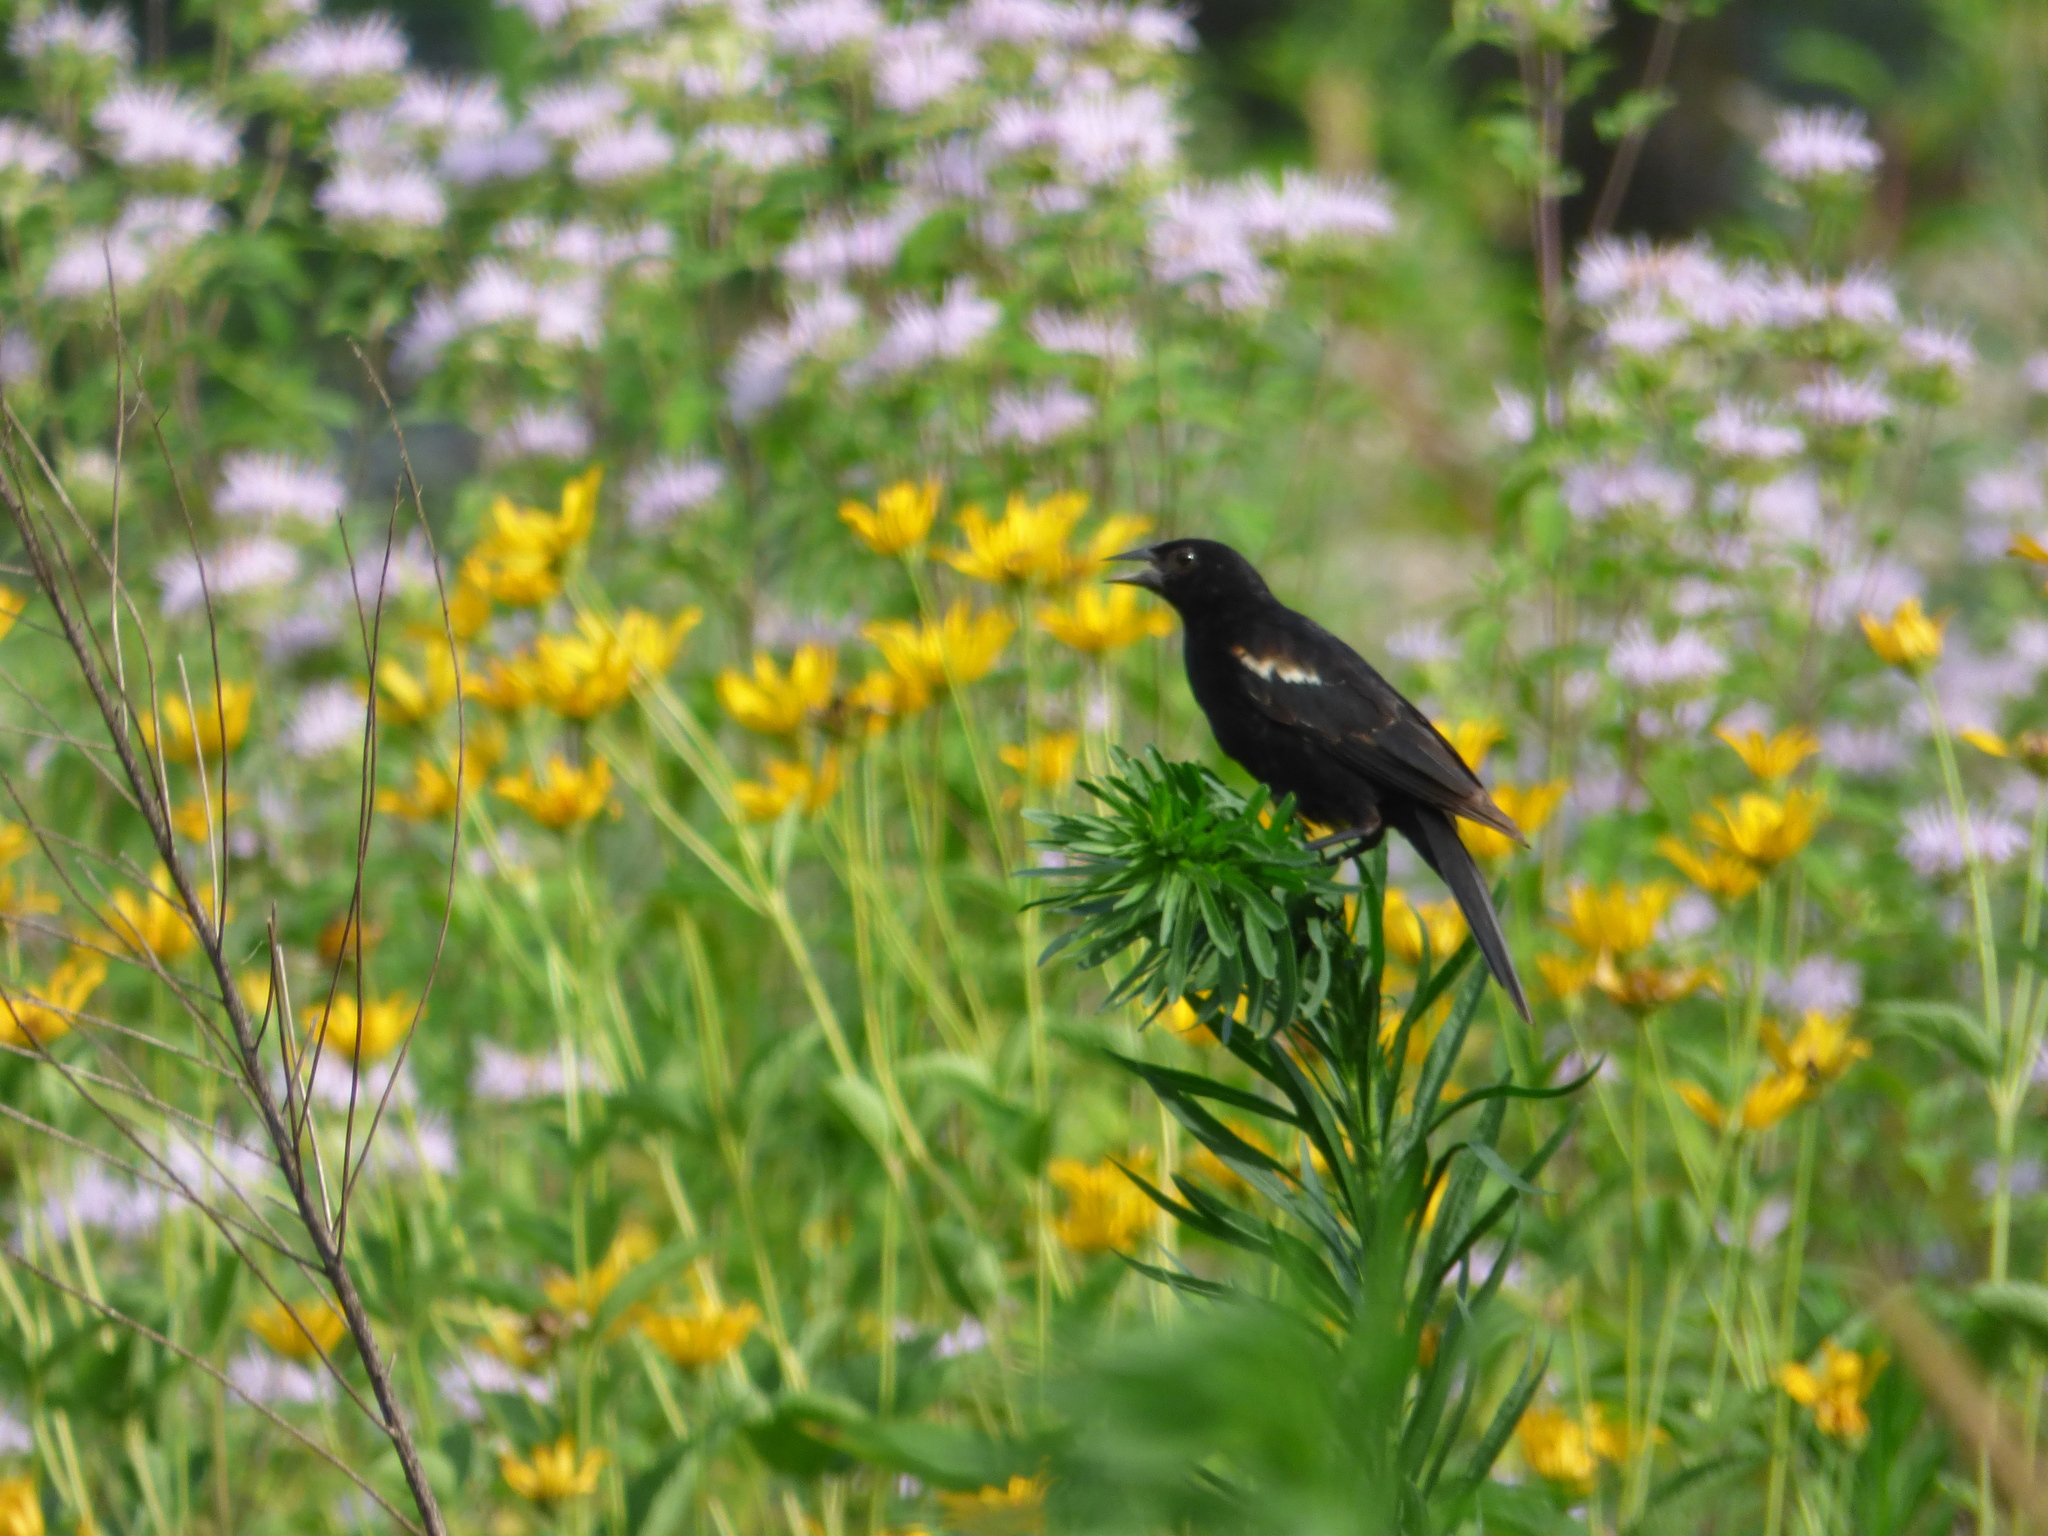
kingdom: Animalia
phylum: Chordata
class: Aves
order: Passeriformes
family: Icteridae
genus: Agelaius
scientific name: Agelaius phoeniceus
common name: Red-winged blackbird
